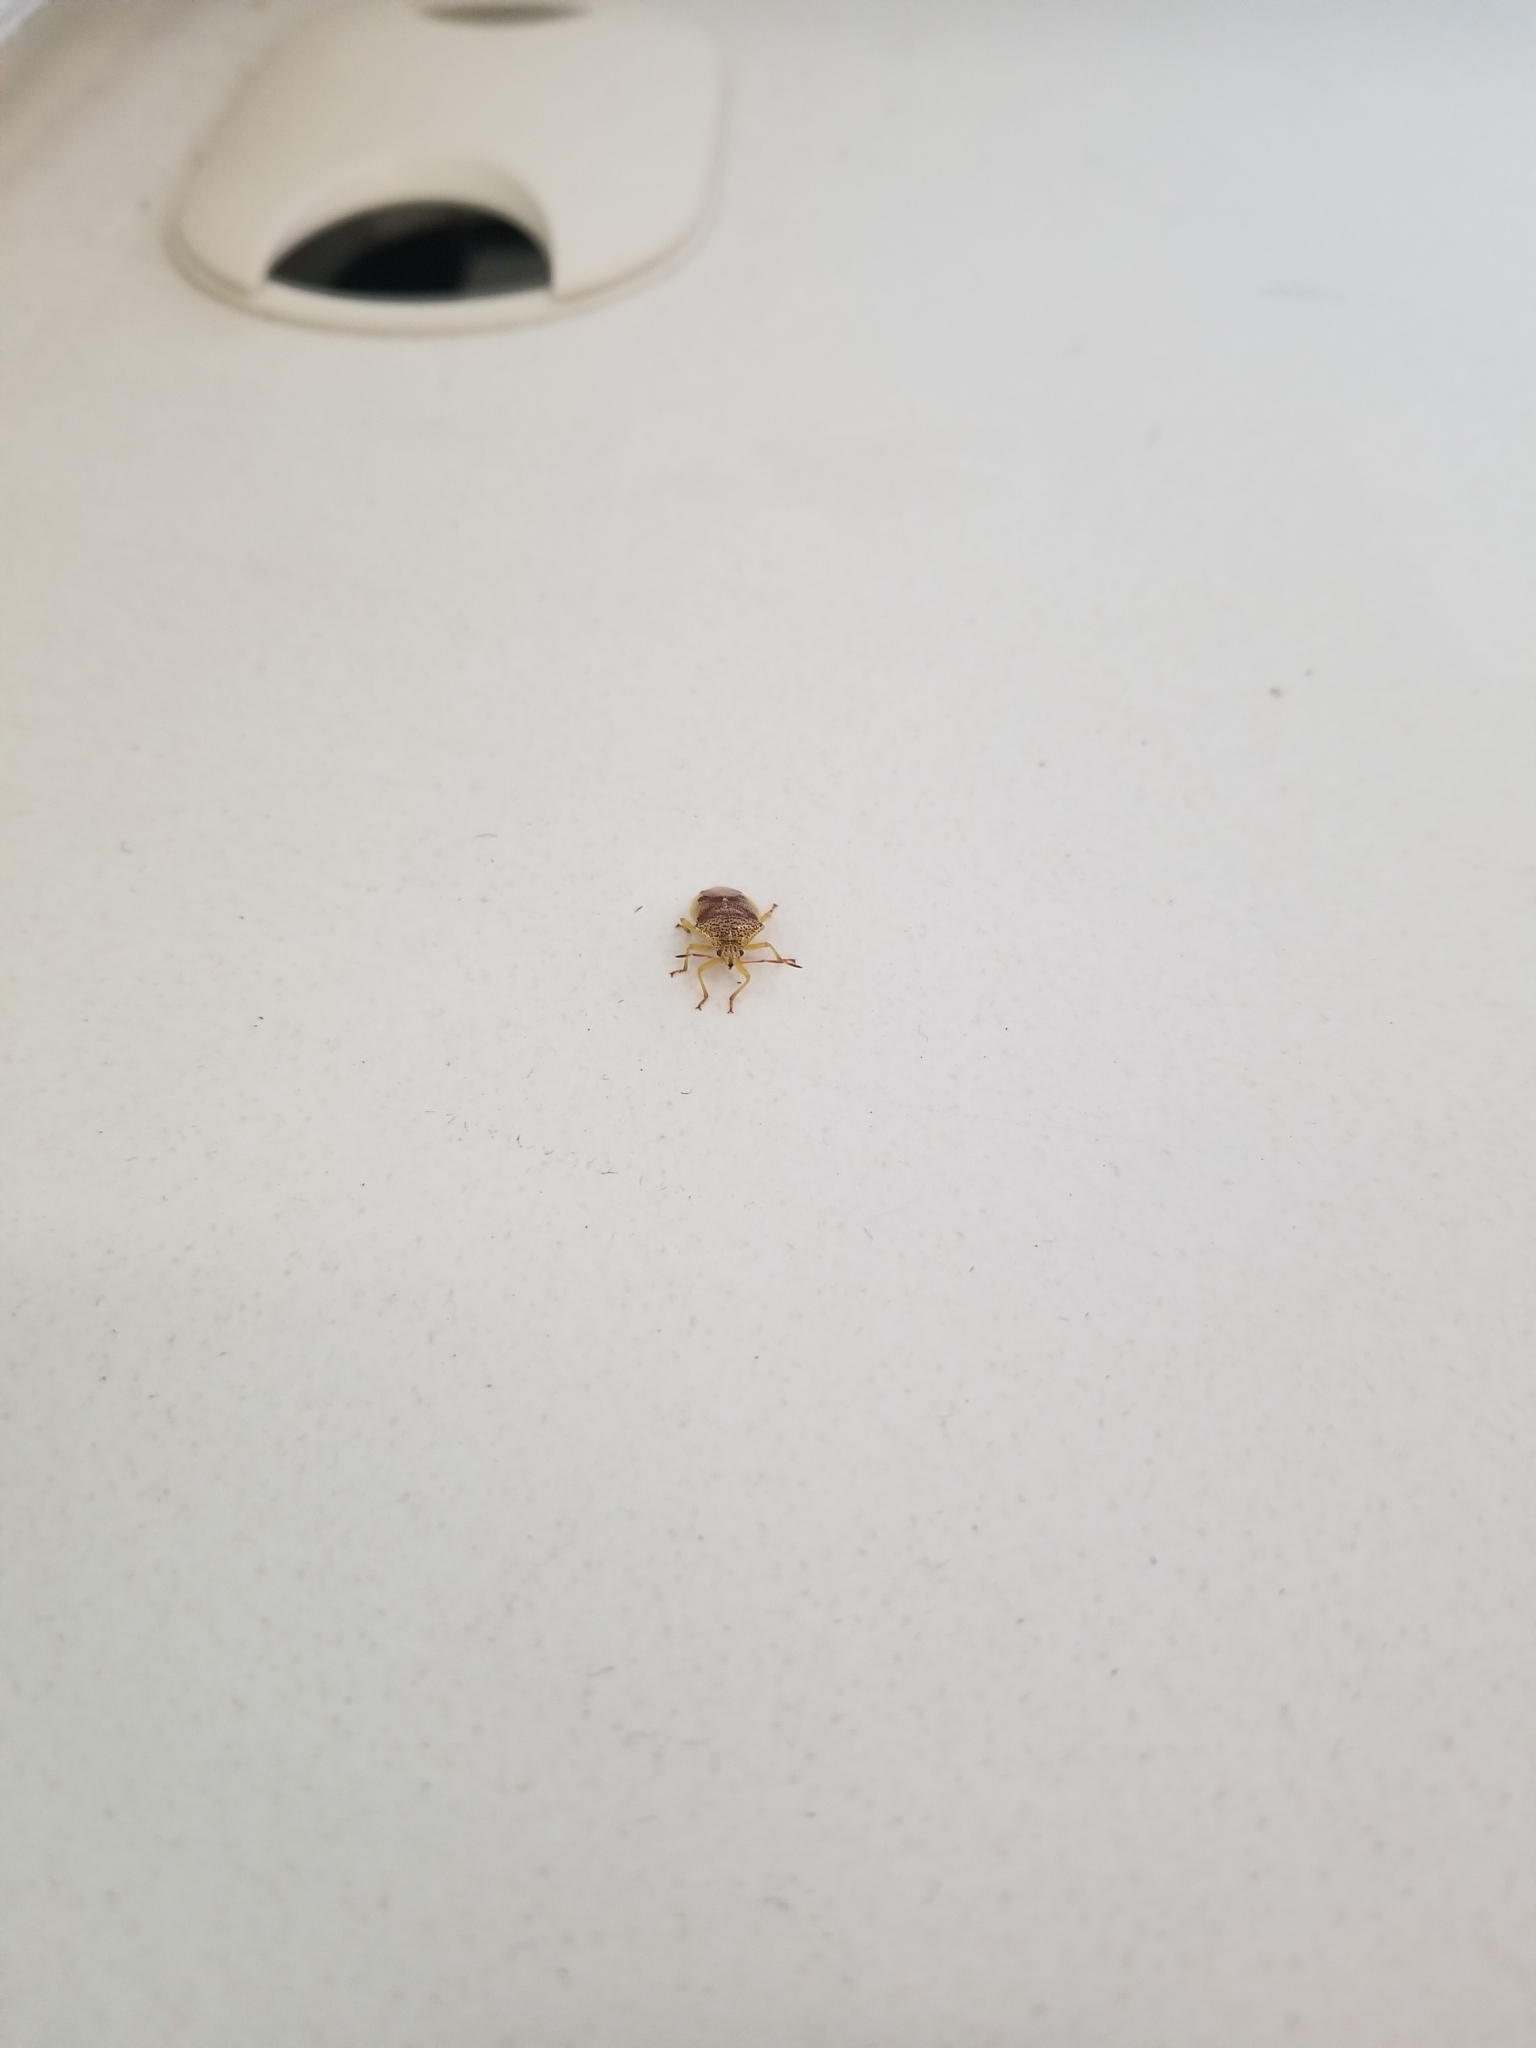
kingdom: Animalia
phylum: Arthropoda
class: Insecta
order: Hemiptera
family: Acanthosomatidae
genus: Elasmostethus
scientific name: Elasmostethus cruciatus
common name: Red-cross shield bug
